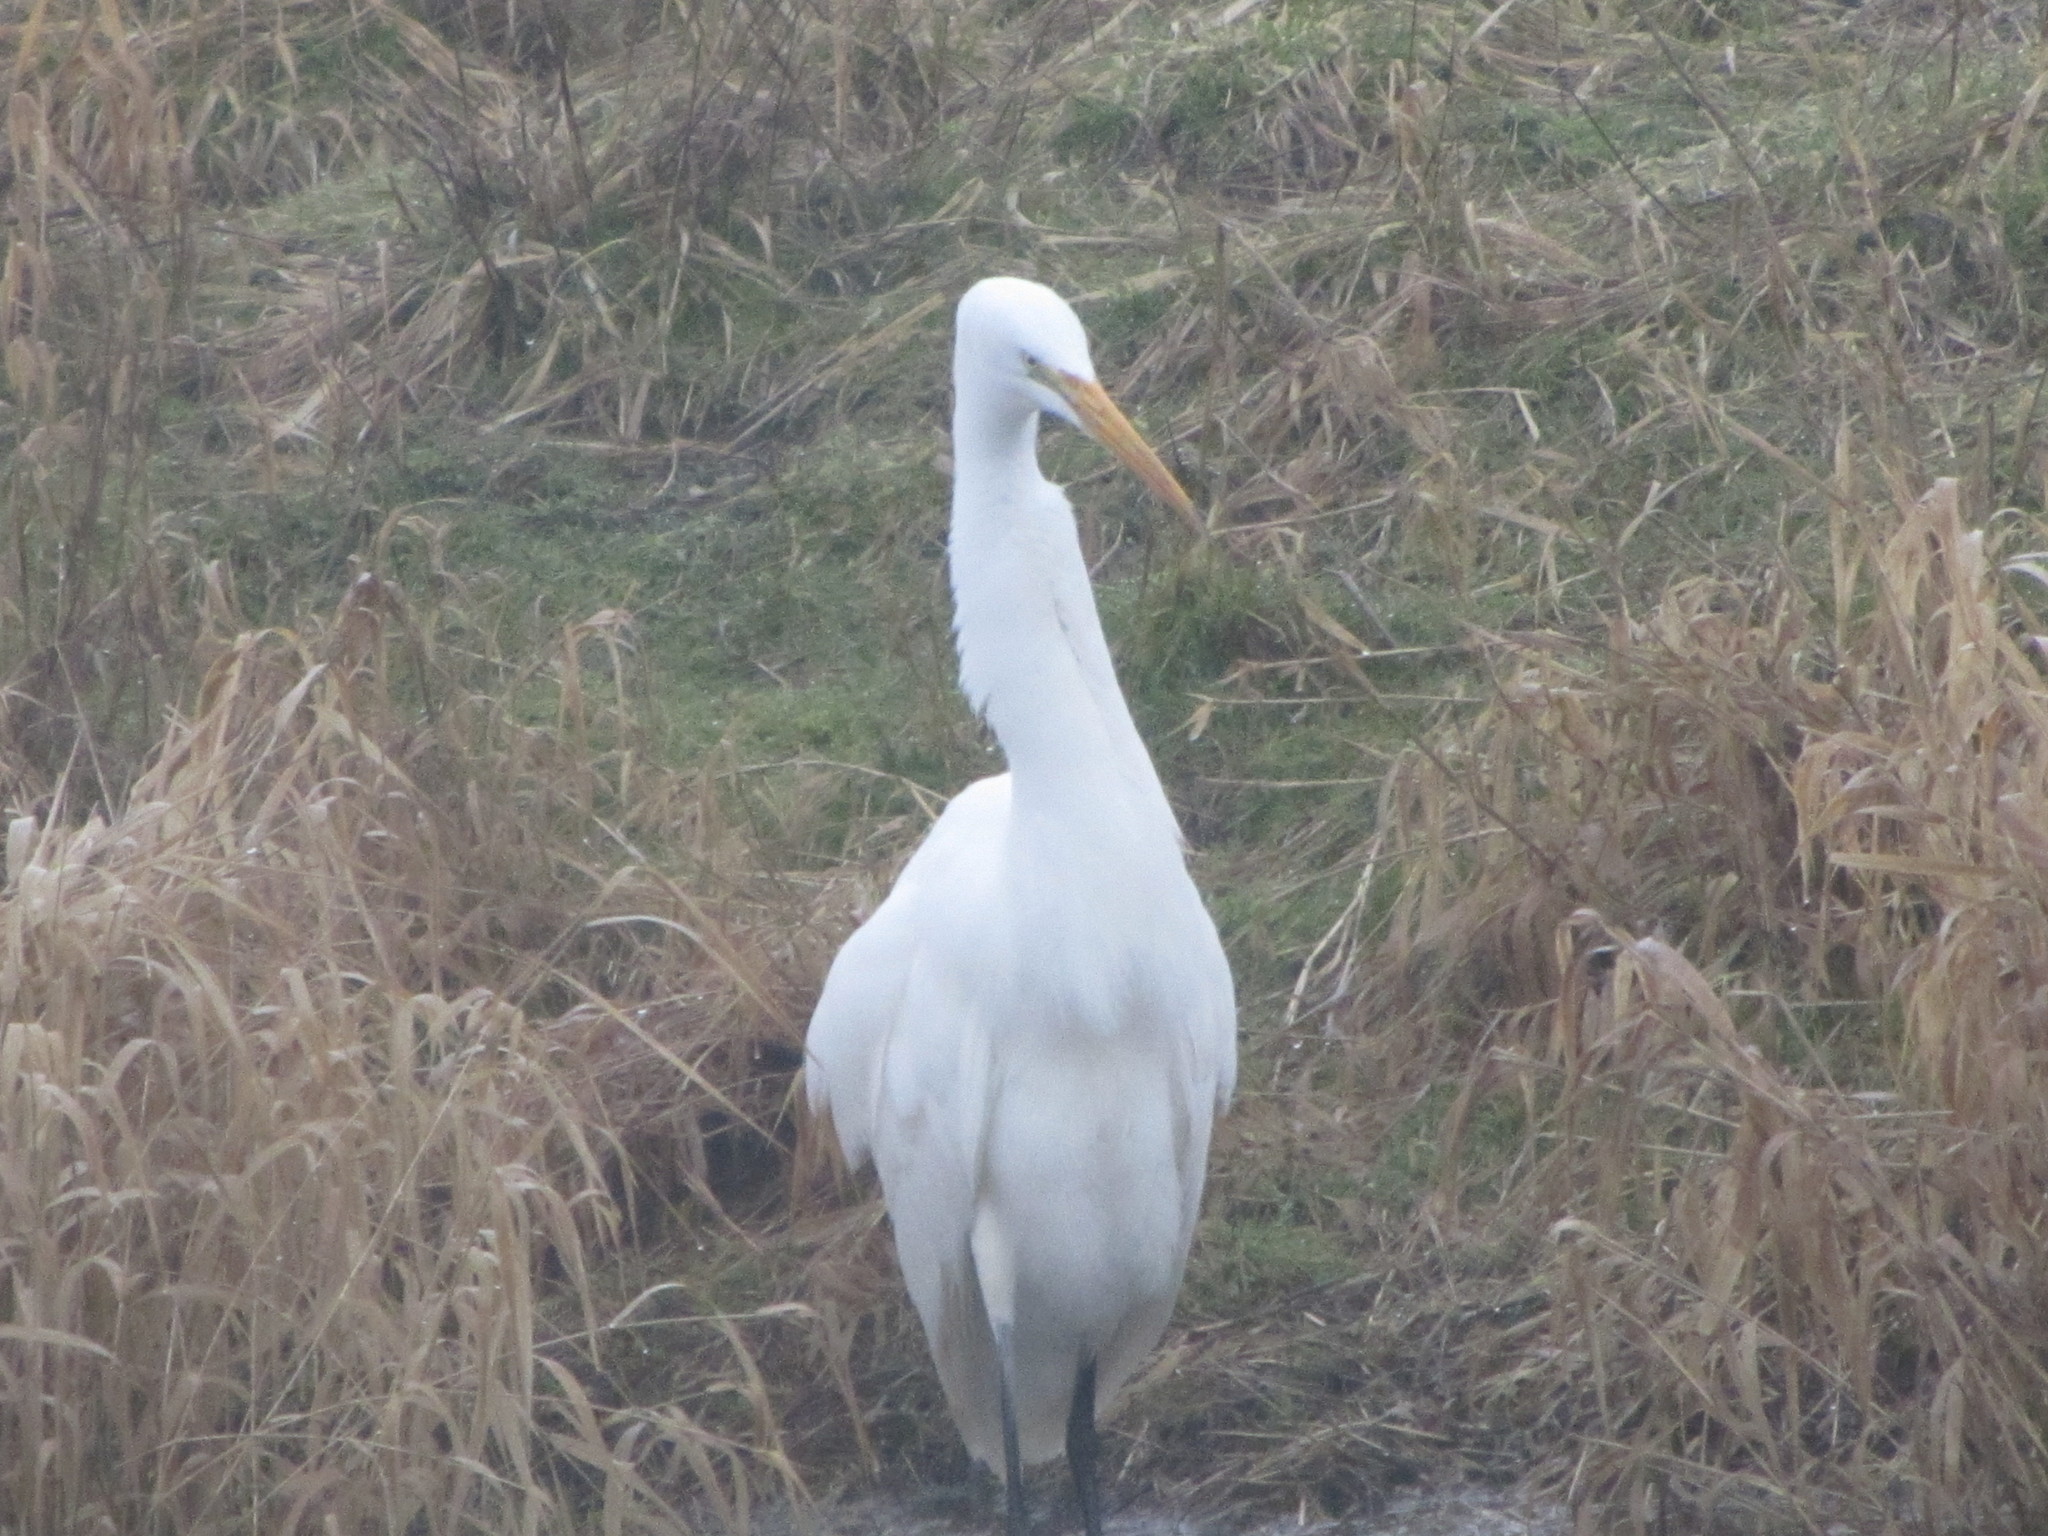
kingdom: Animalia
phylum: Chordata
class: Aves
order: Pelecaniformes
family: Ardeidae
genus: Ardea
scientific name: Ardea alba
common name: Great egret
